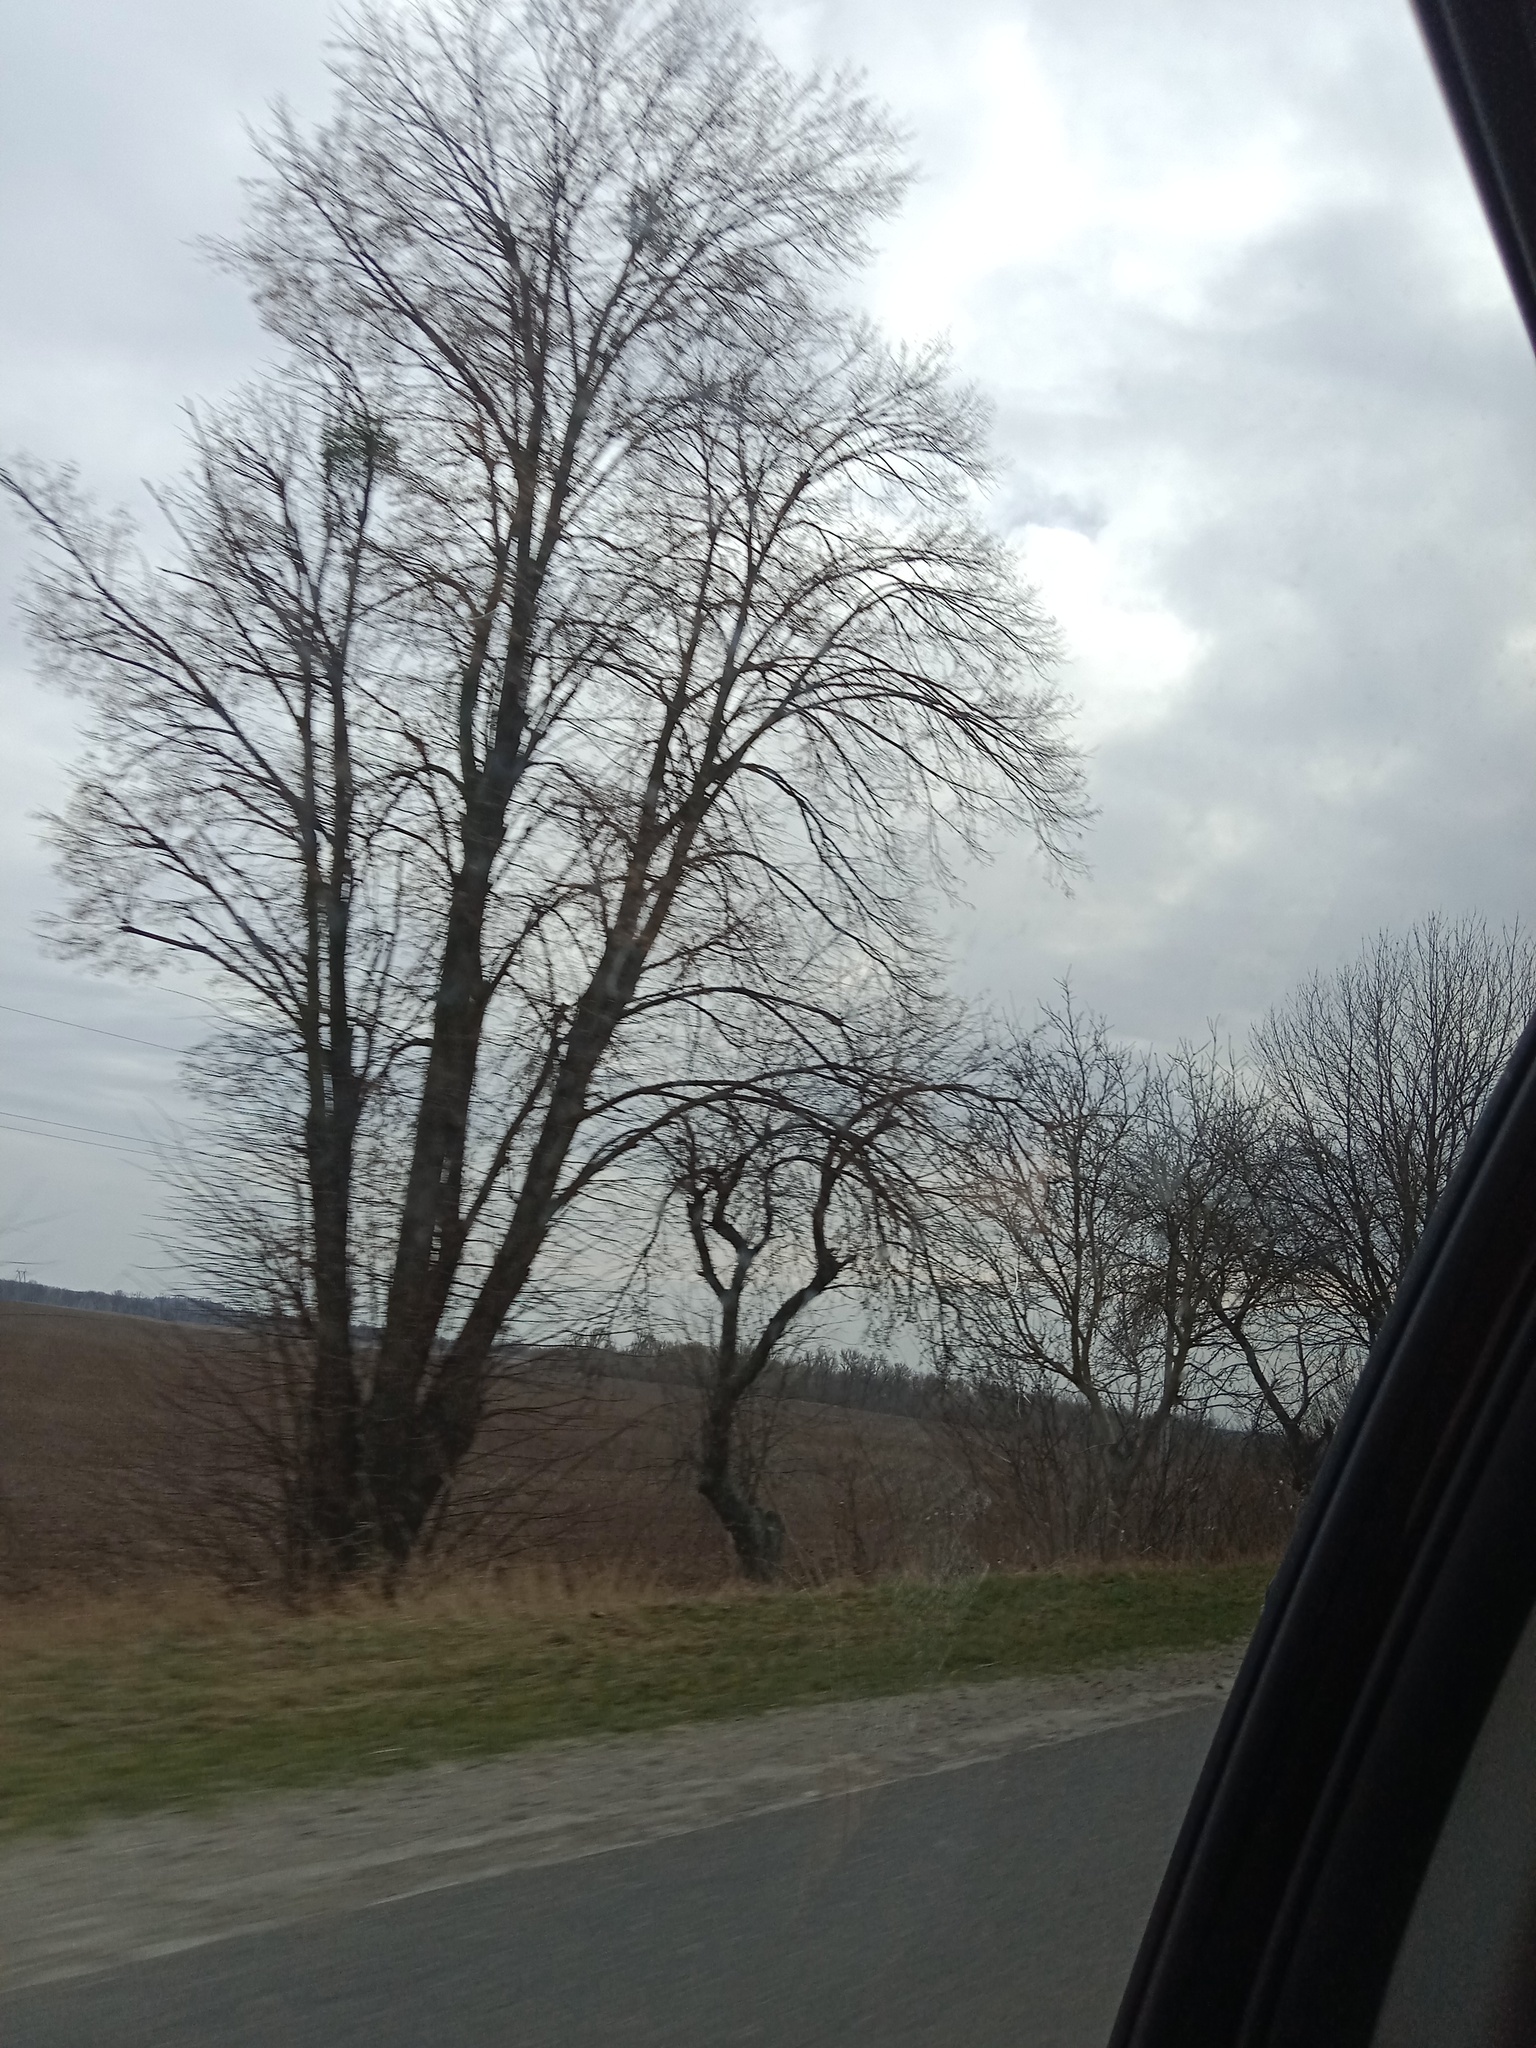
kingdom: Plantae
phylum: Tracheophyta
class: Magnoliopsida
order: Santalales
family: Viscaceae
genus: Viscum
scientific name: Viscum album
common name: Mistletoe
